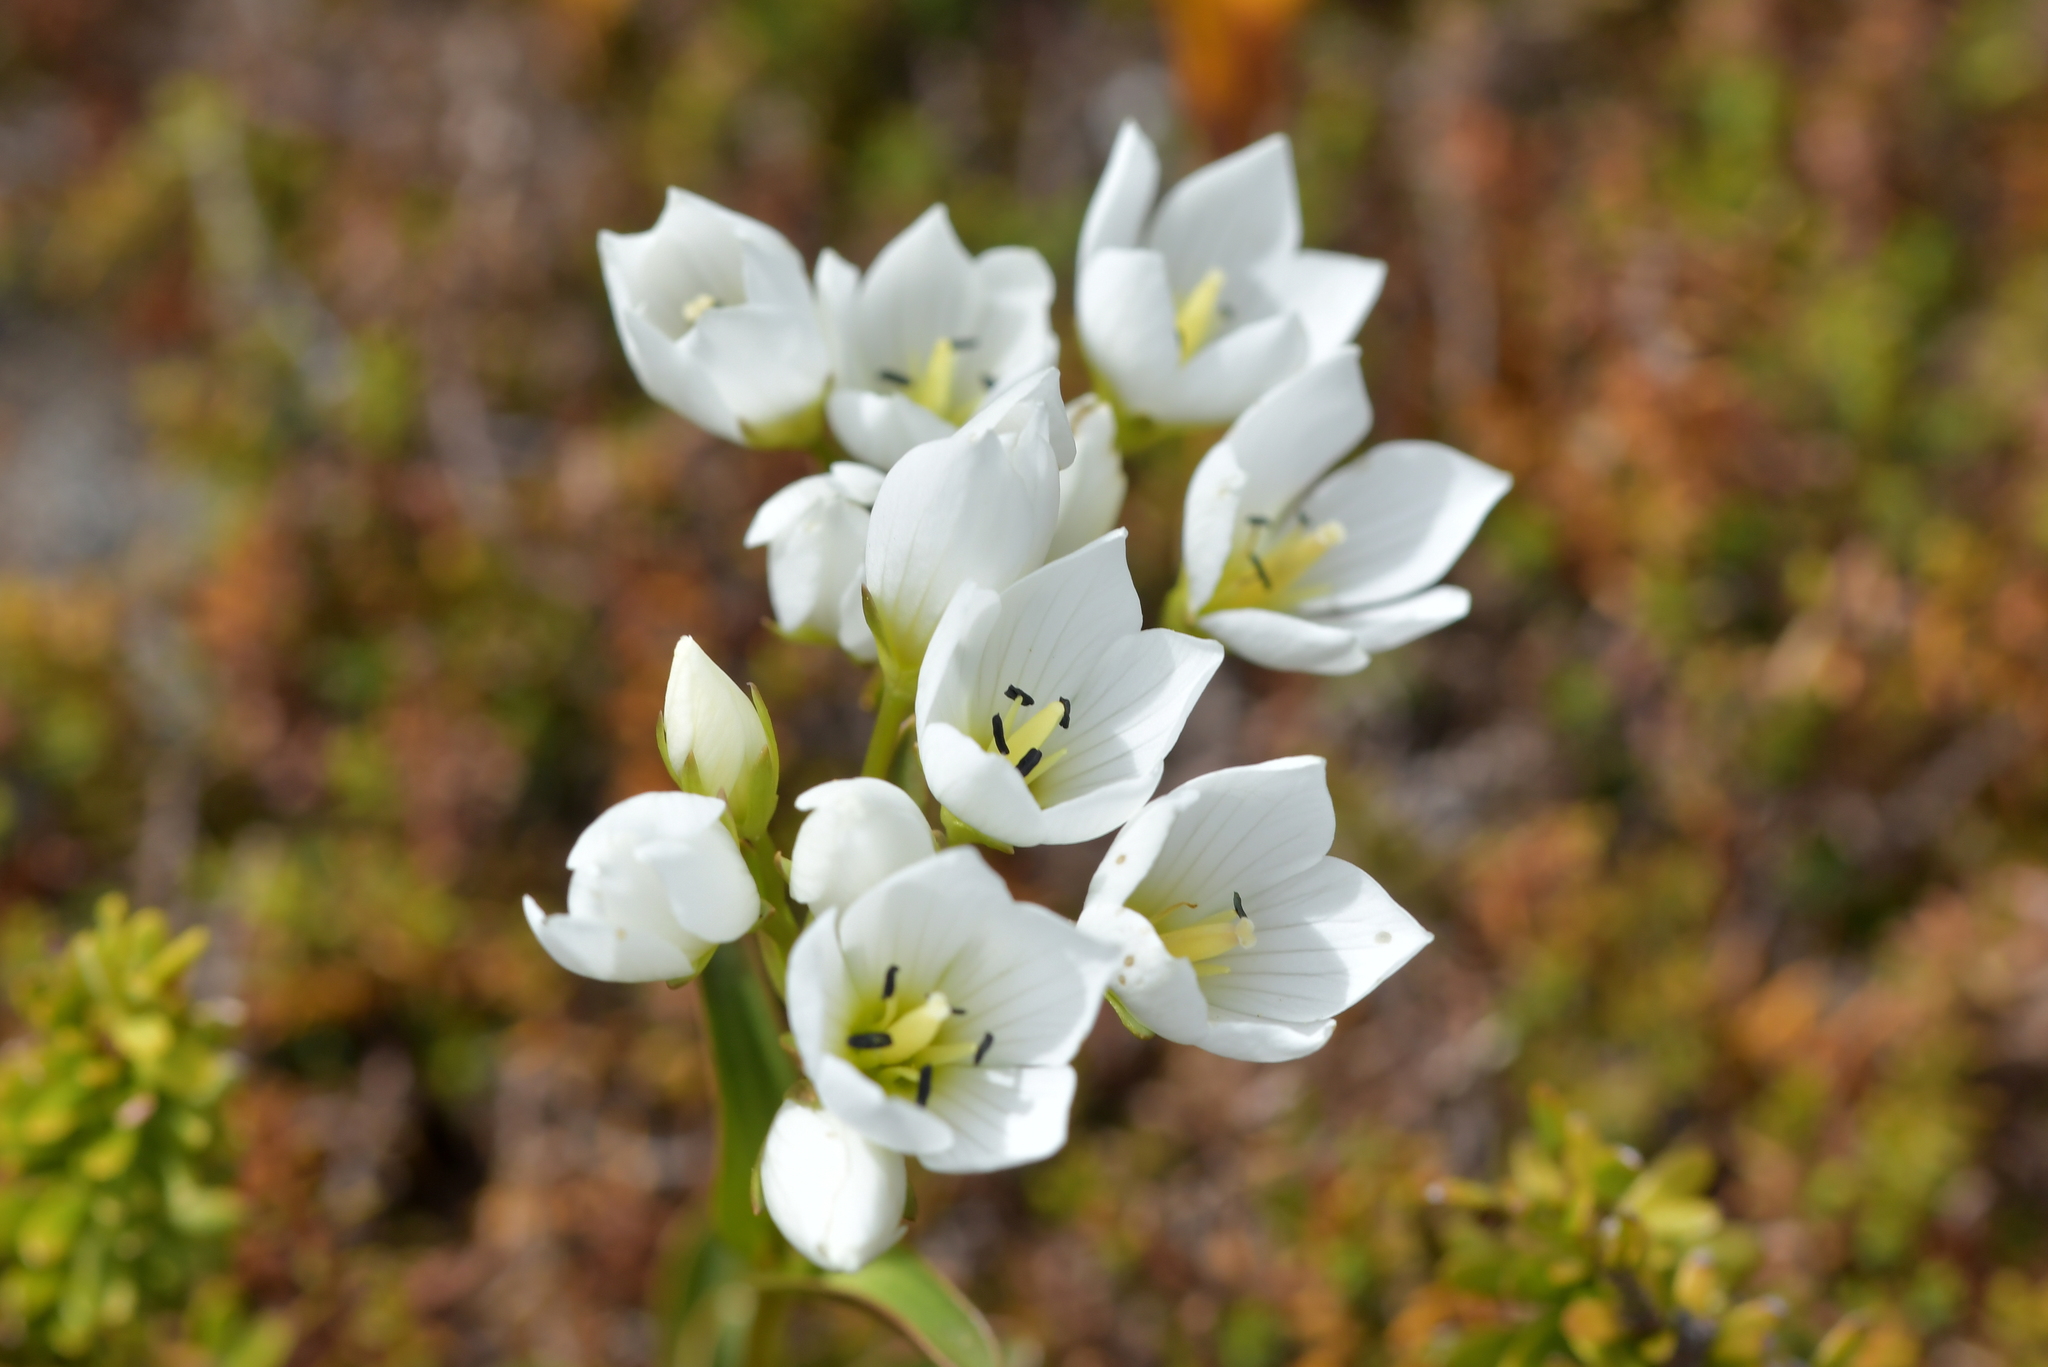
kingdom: Plantae
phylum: Tracheophyta
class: Magnoliopsida
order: Gentianales
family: Gentianaceae
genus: Gentianella
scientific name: Gentianella montana
